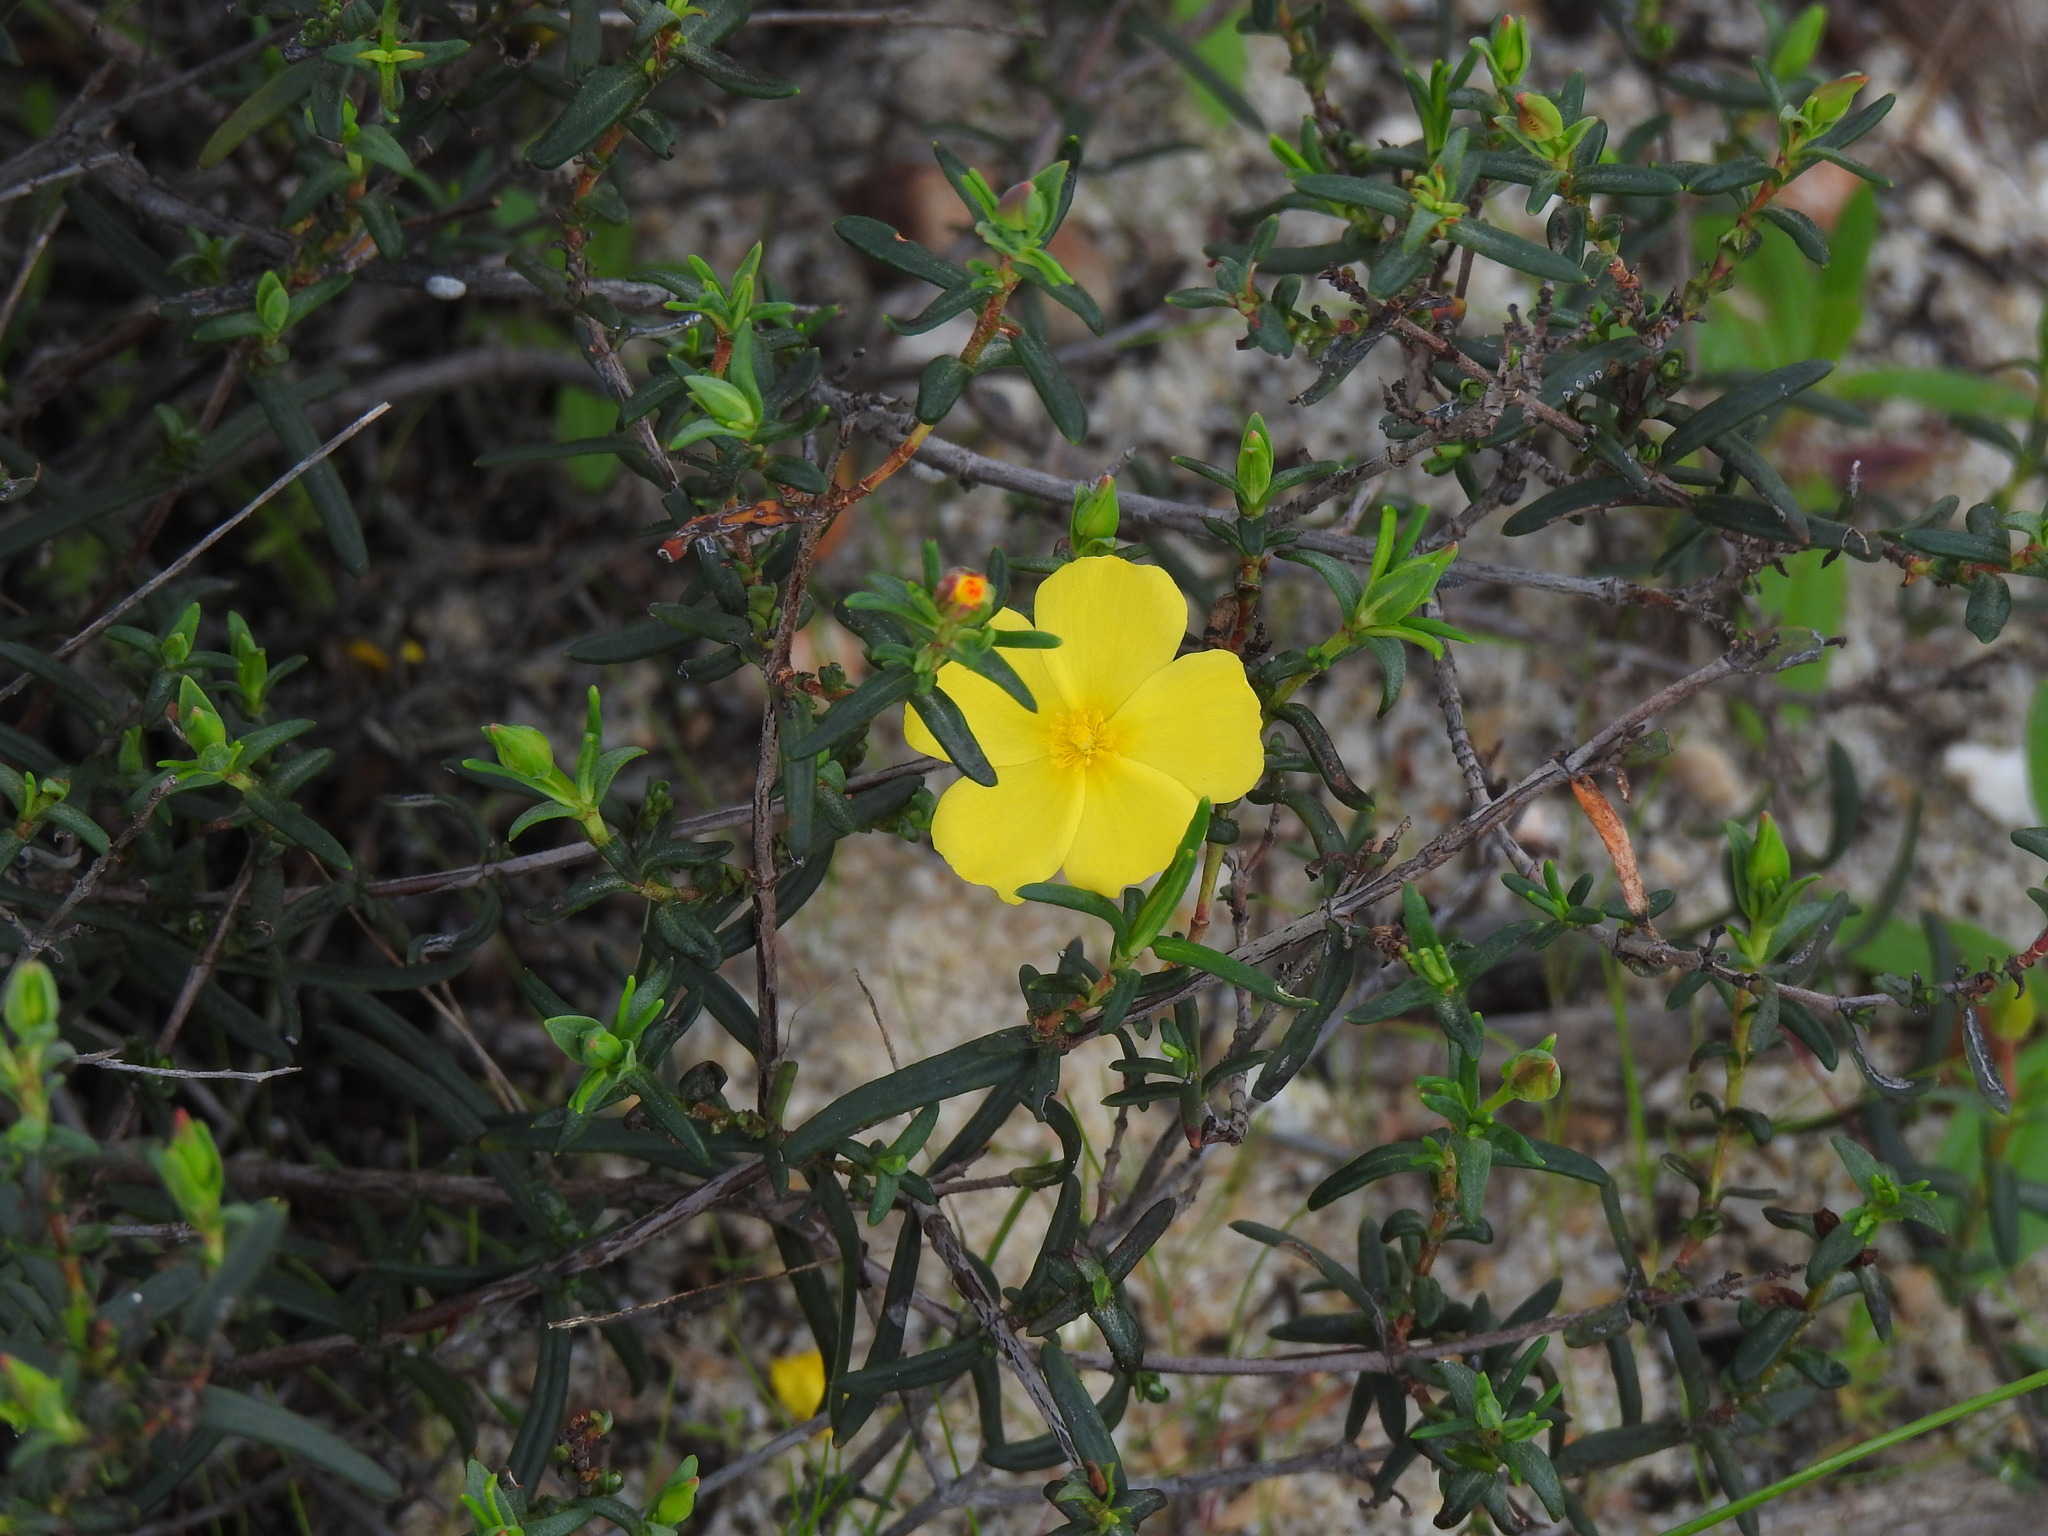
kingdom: Plantae
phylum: Tracheophyta
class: Magnoliopsida
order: Malvales
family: Cistaceae
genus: Halimium
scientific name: Halimium calycinum
